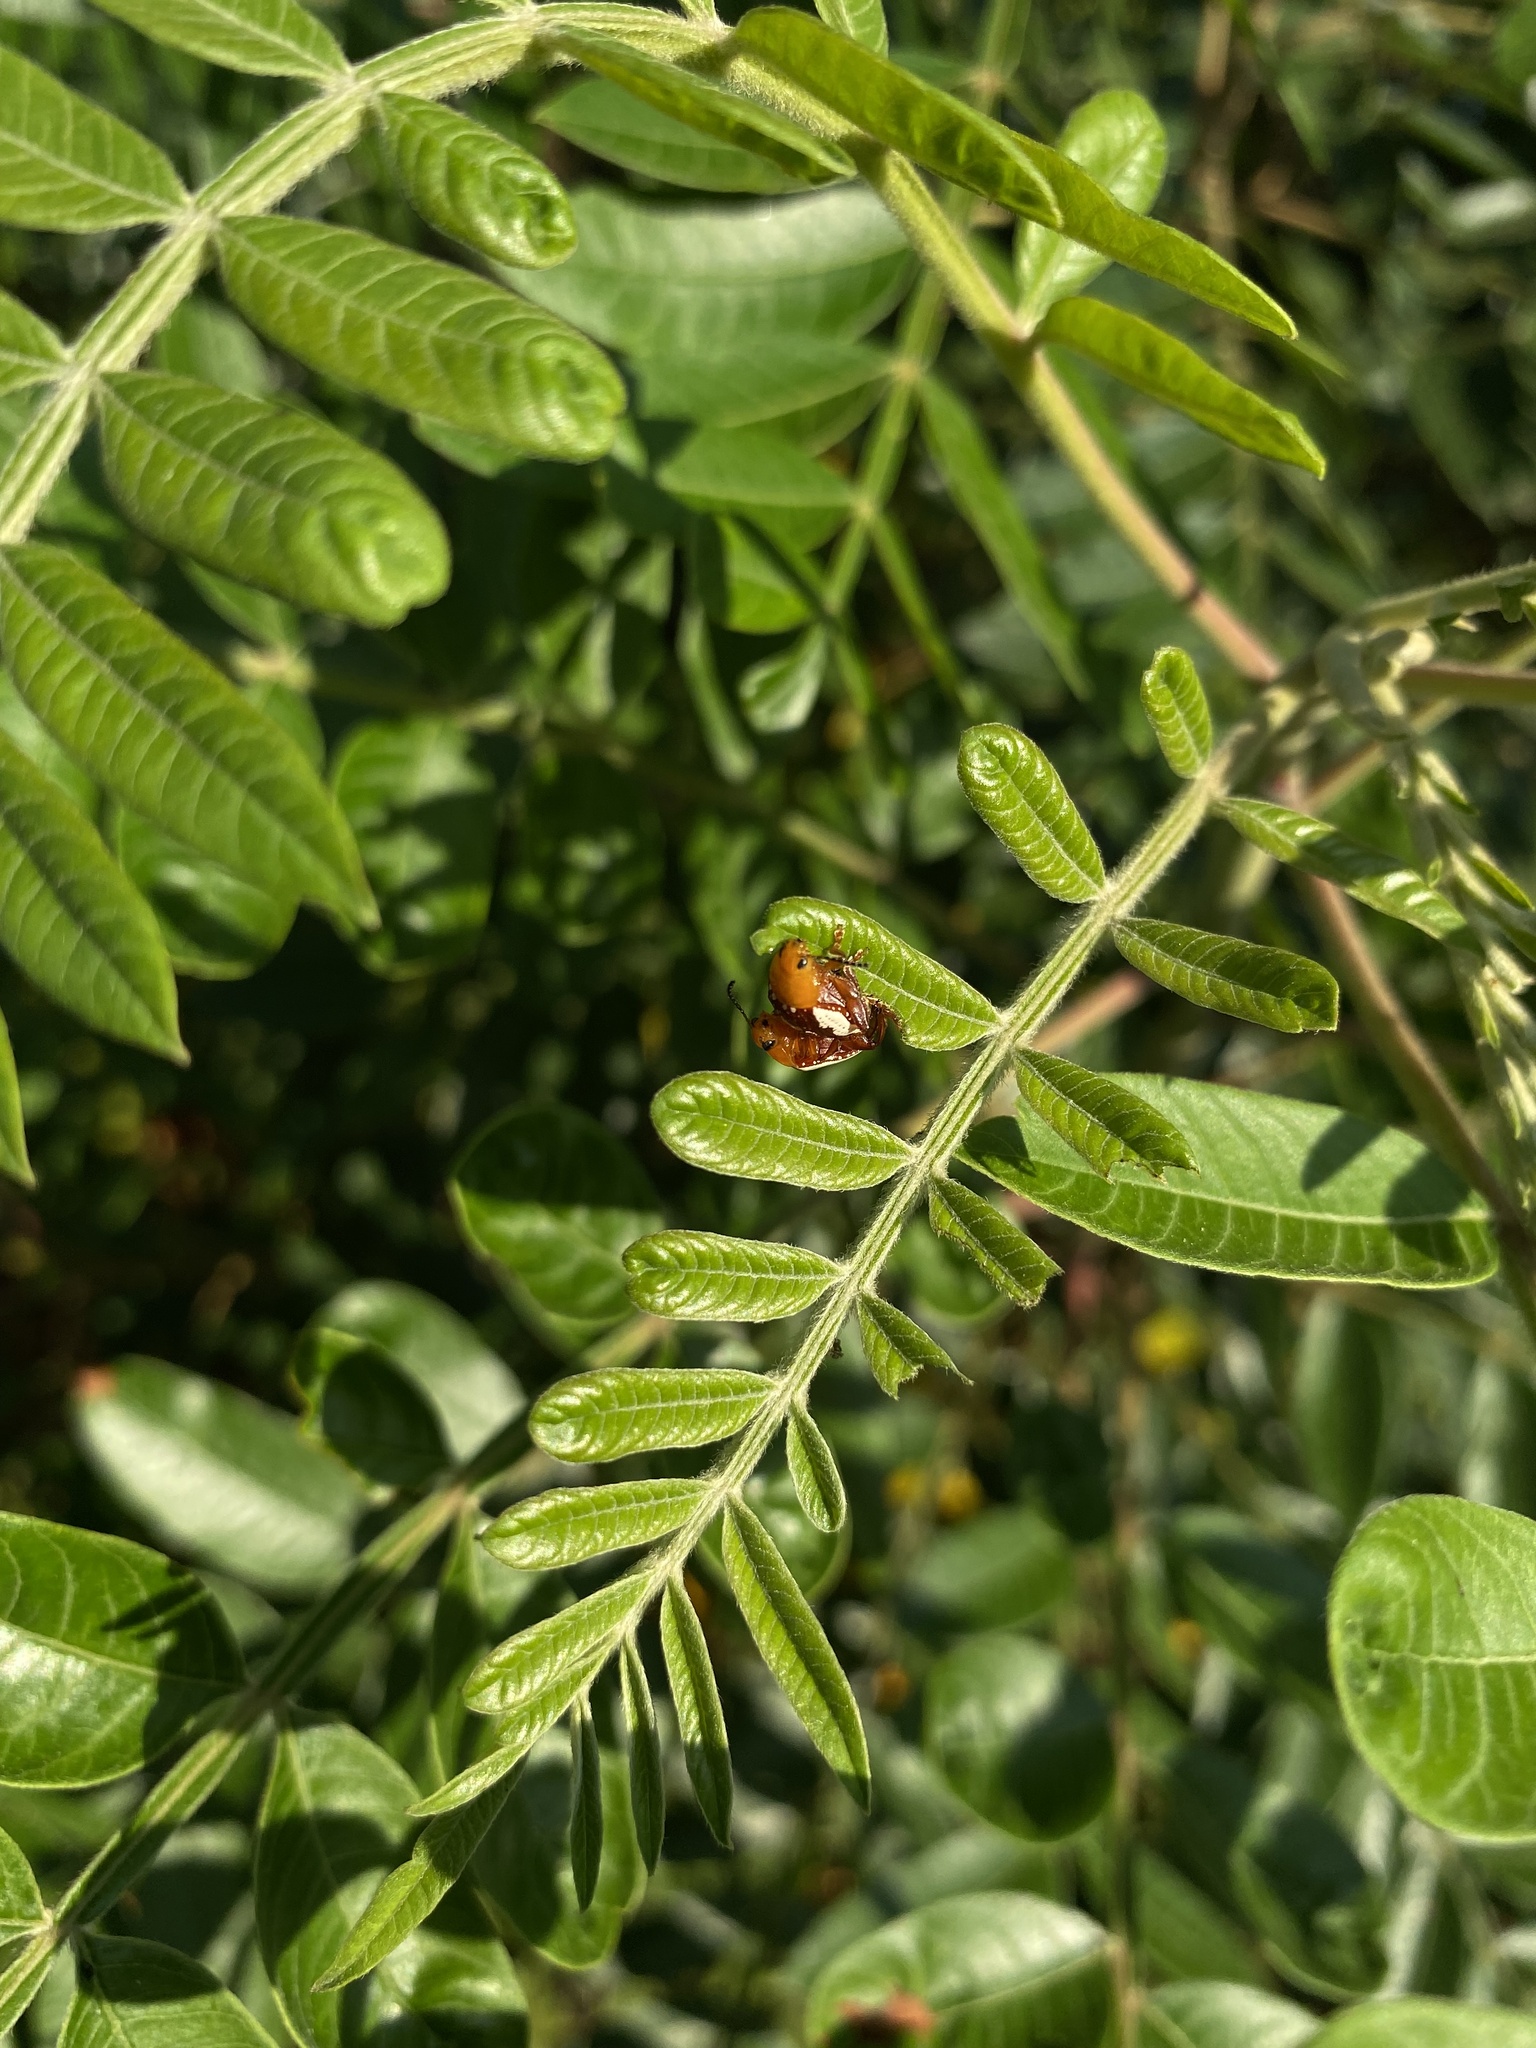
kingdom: Animalia
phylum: Arthropoda
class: Insecta
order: Coleoptera
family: Chrysomelidae
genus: Blepharida
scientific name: Blepharida rhois
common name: Sumac flea beetle
